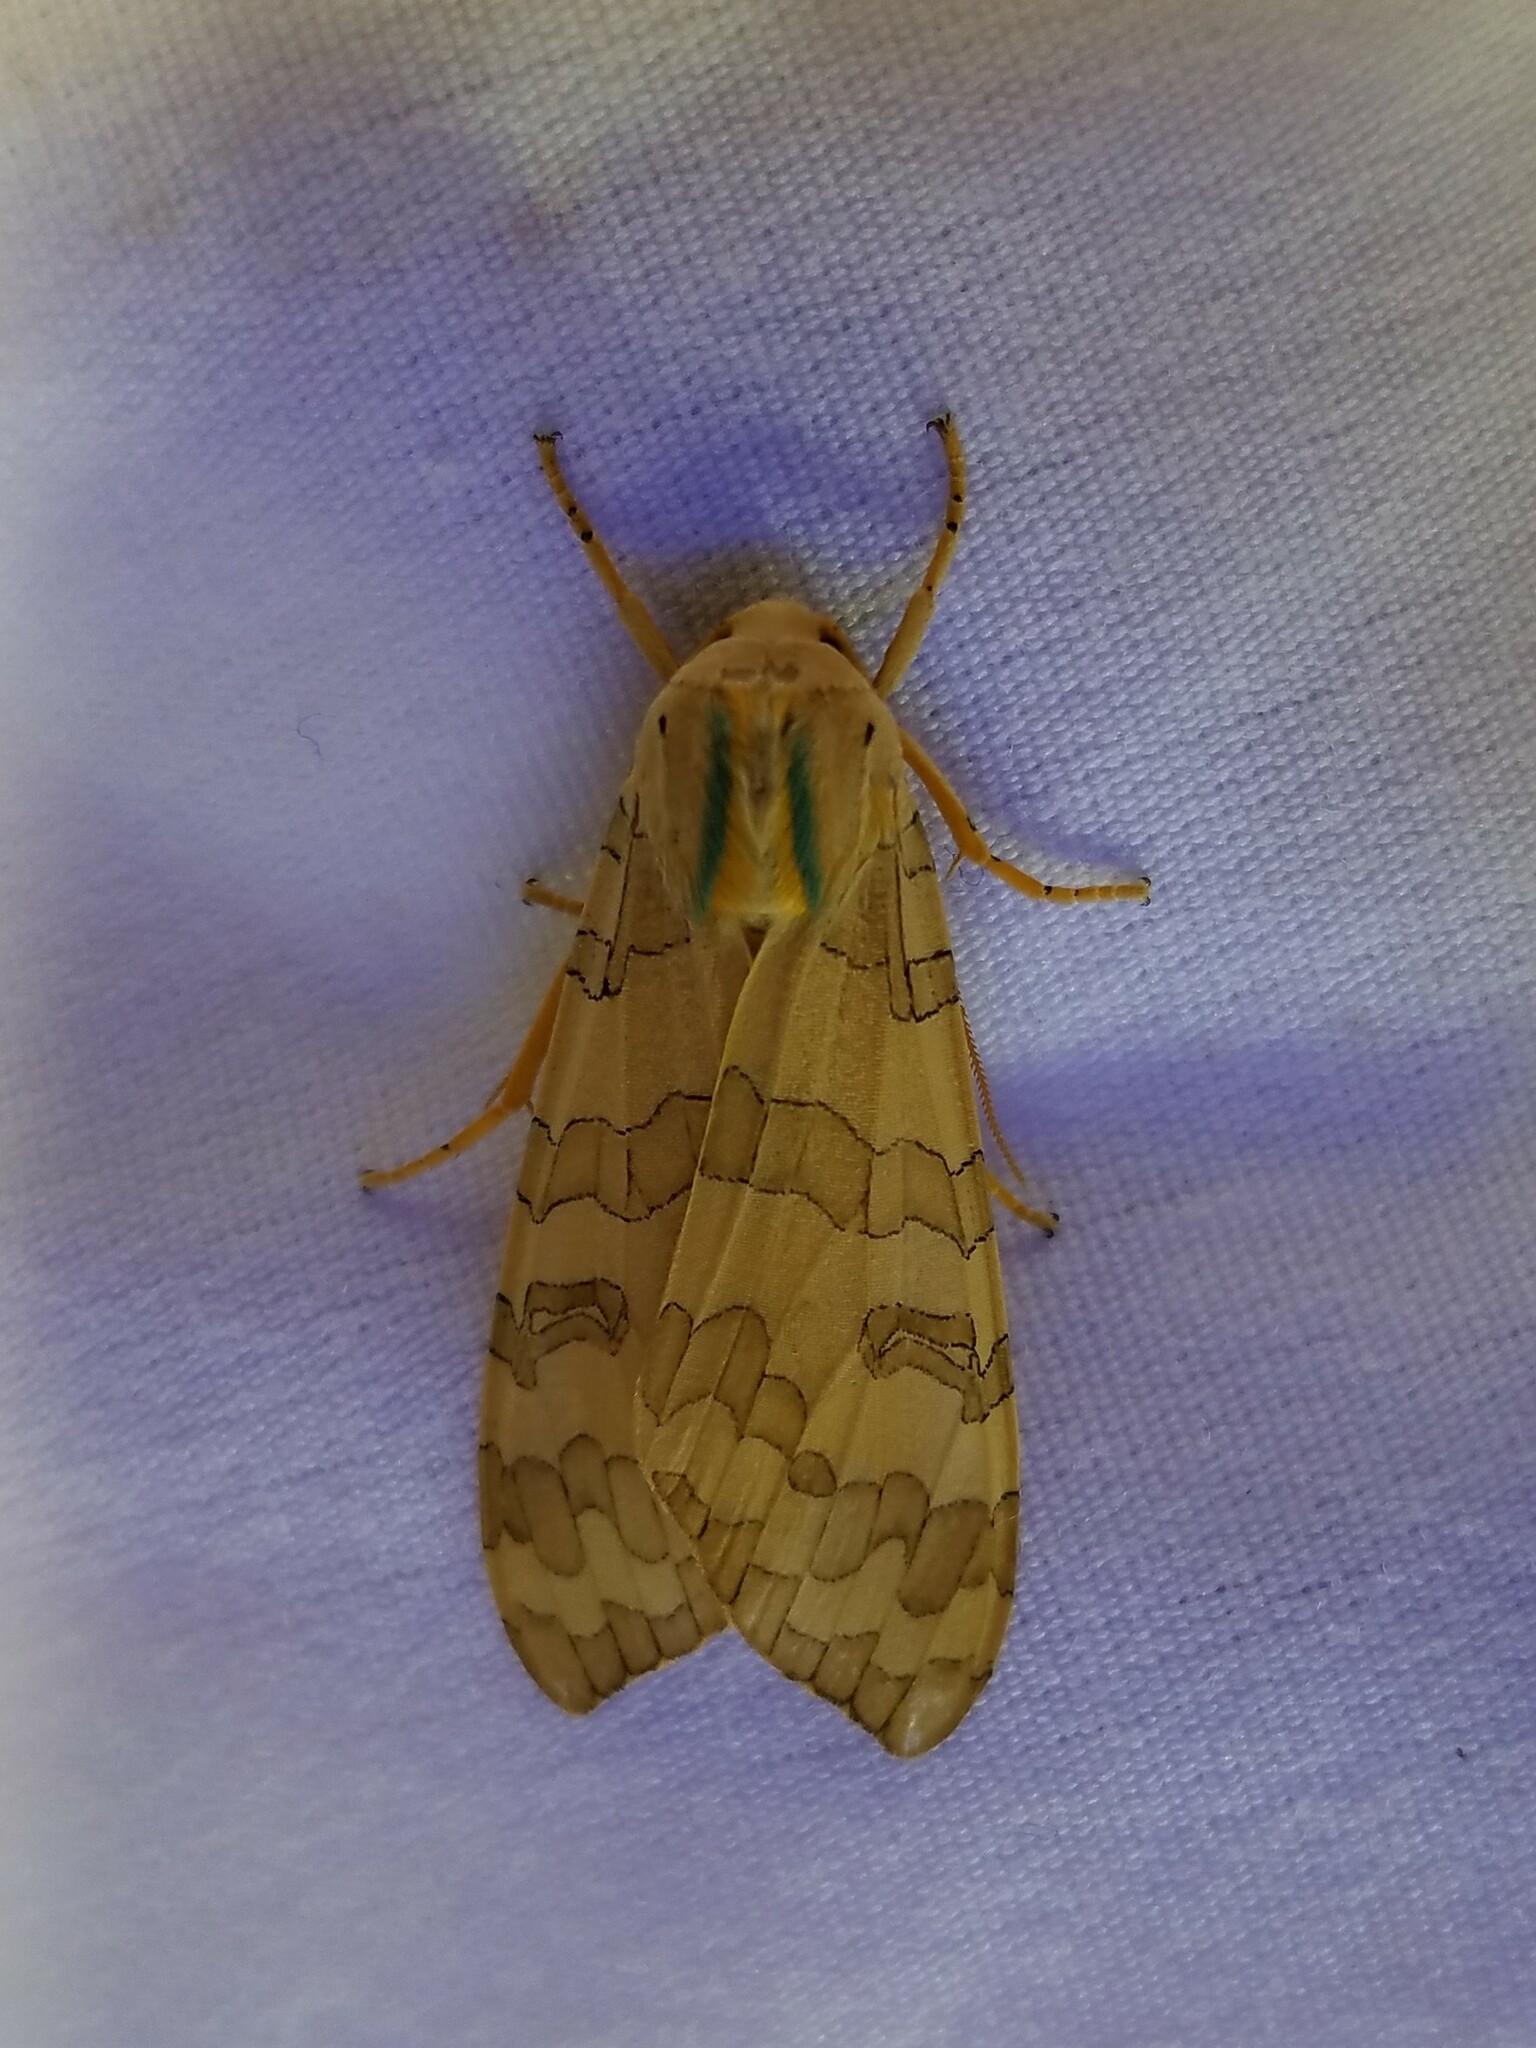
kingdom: Animalia
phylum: Arthropoda
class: Insecta
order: Lepidoptera
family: Erebidae
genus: Halysidota
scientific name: Halysidota
